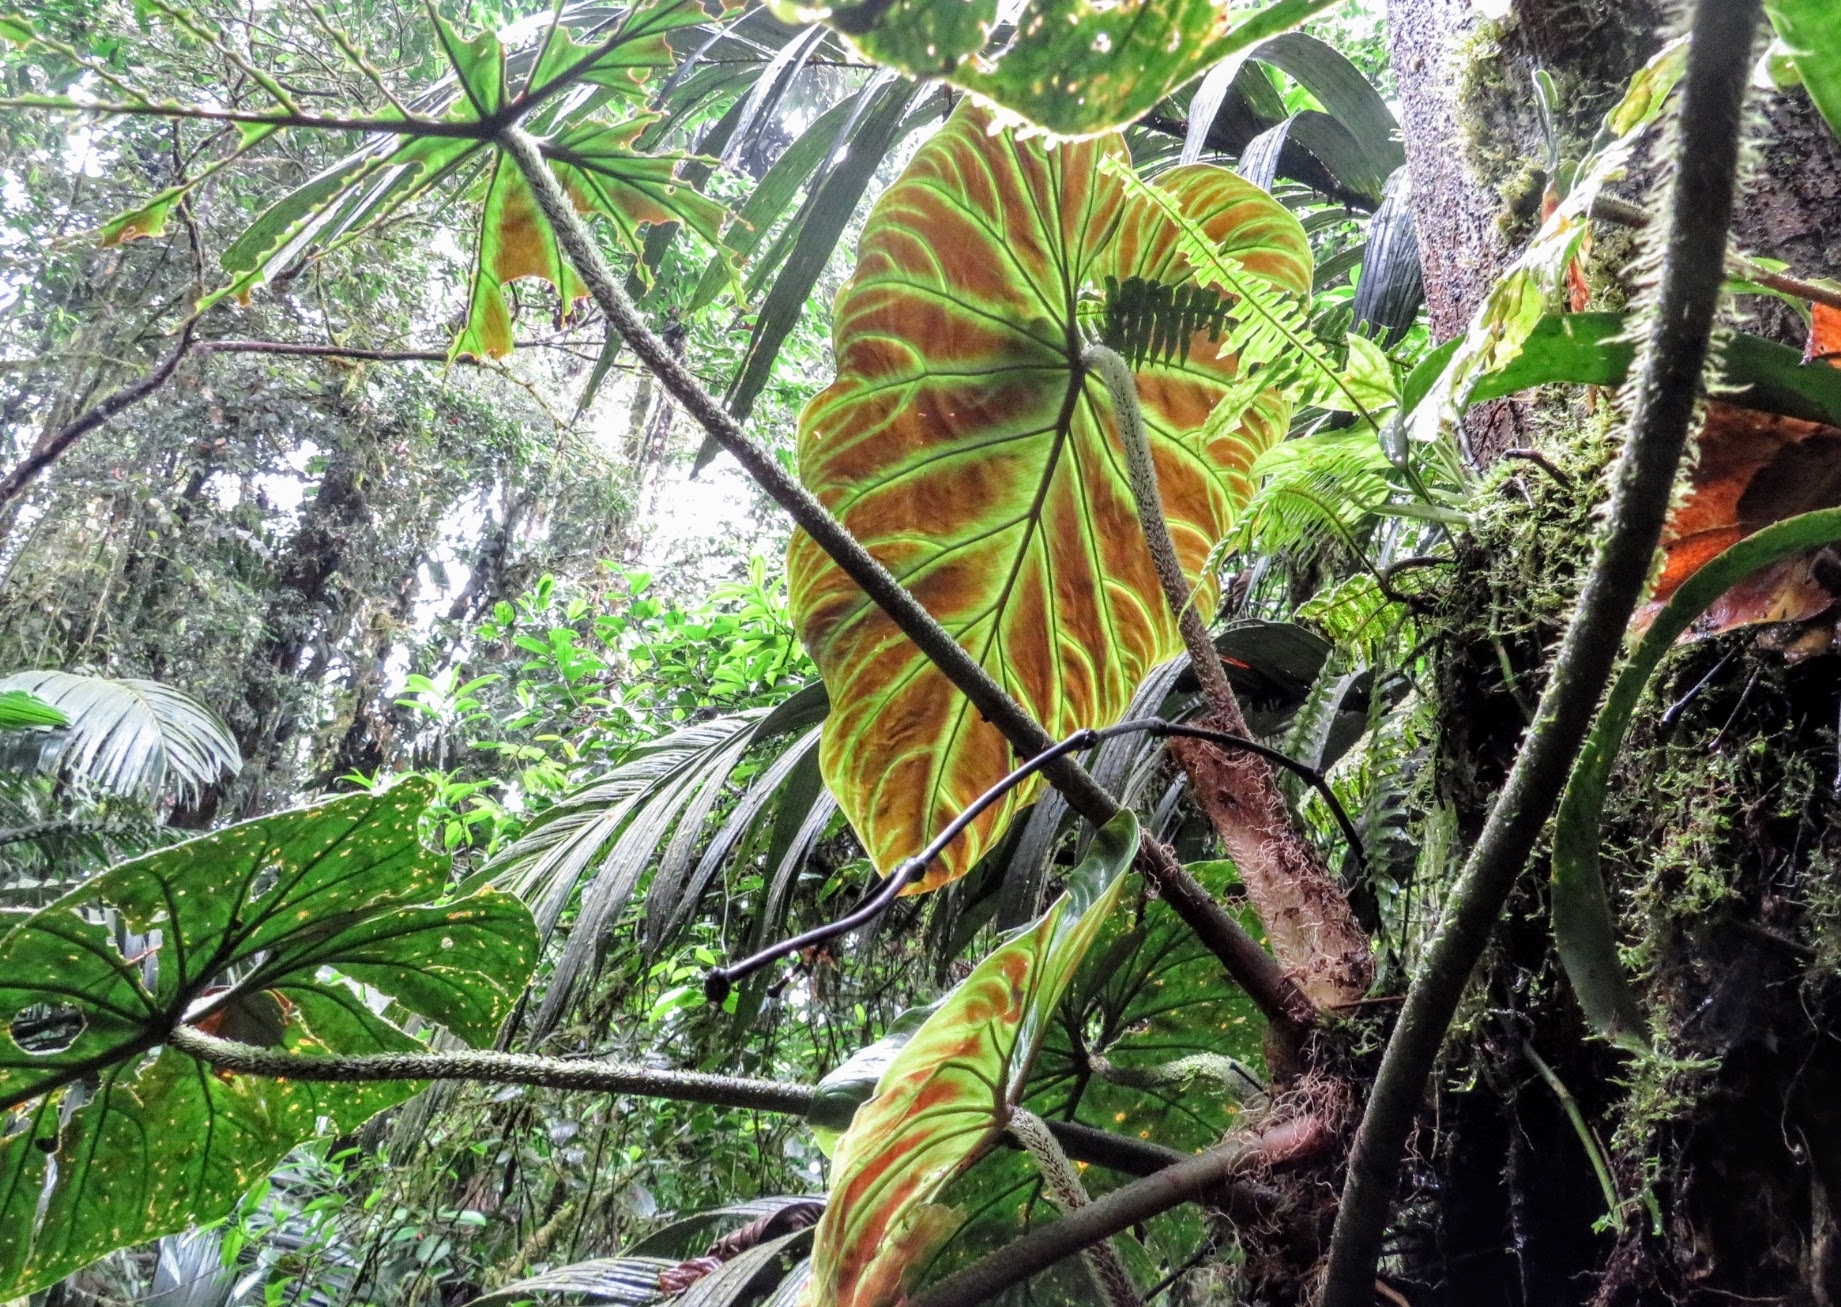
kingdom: Plantae
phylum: Tracheophyta
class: Liliopsida
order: Alismatales
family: Araceae
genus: Philodendron
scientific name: Philodendron verrucosum
